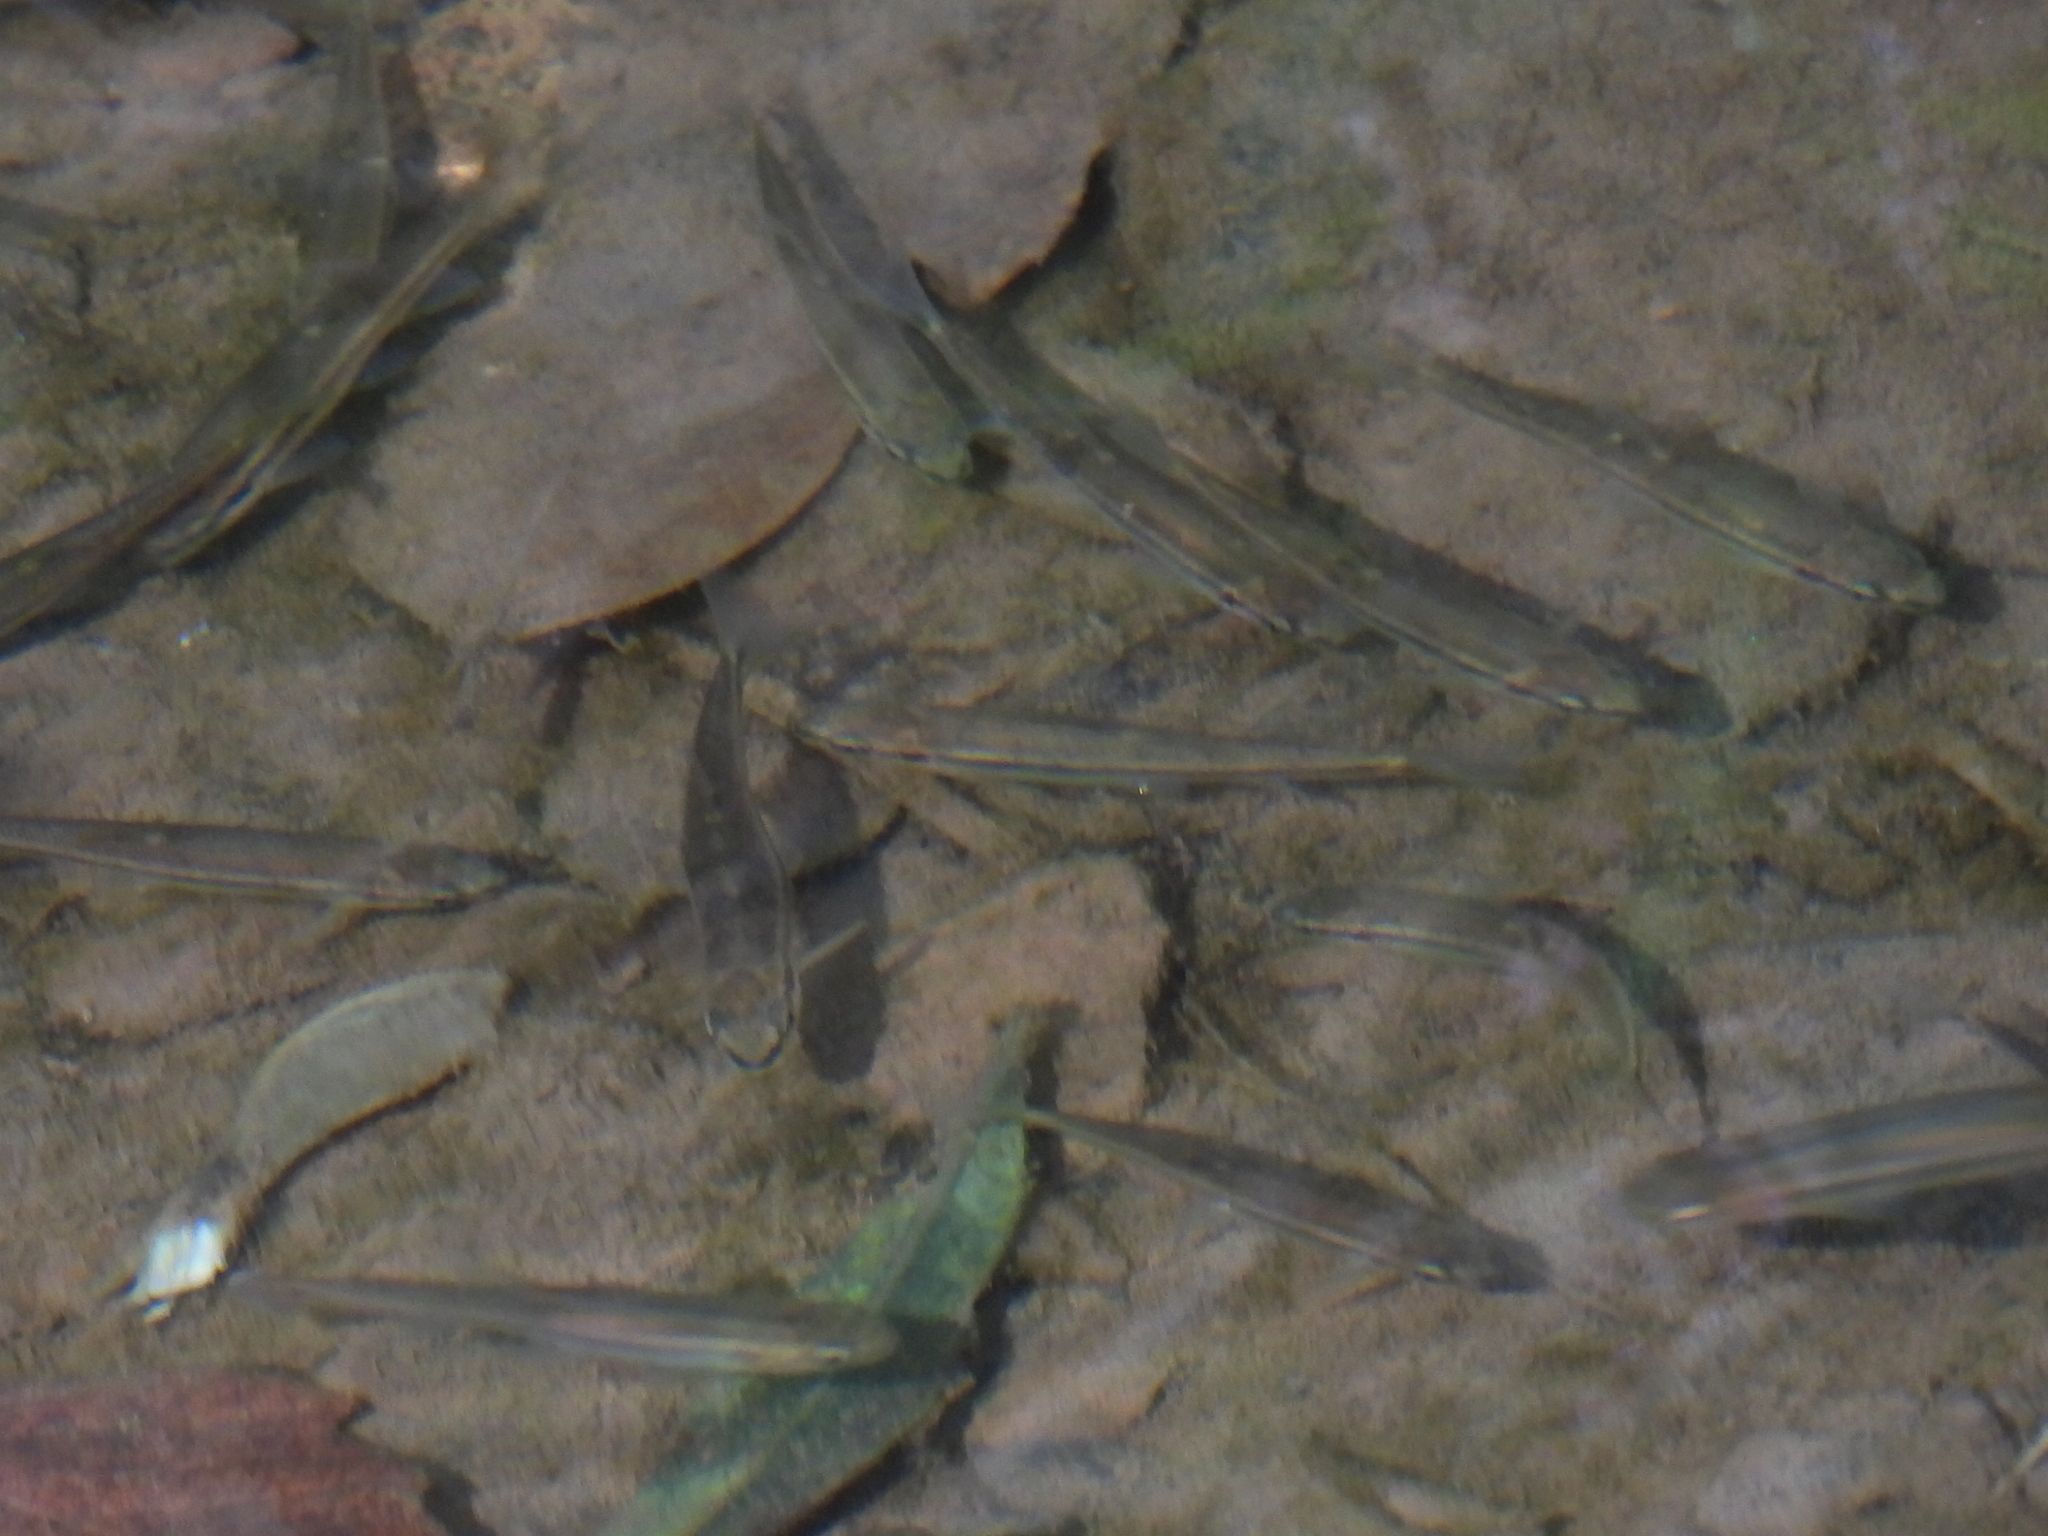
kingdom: Animalia
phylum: Chordata
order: Cypriniformes
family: Cyprinidae
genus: Rhinichthys
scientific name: Rhinichthys atratulus
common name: Eastern blacknose dace
